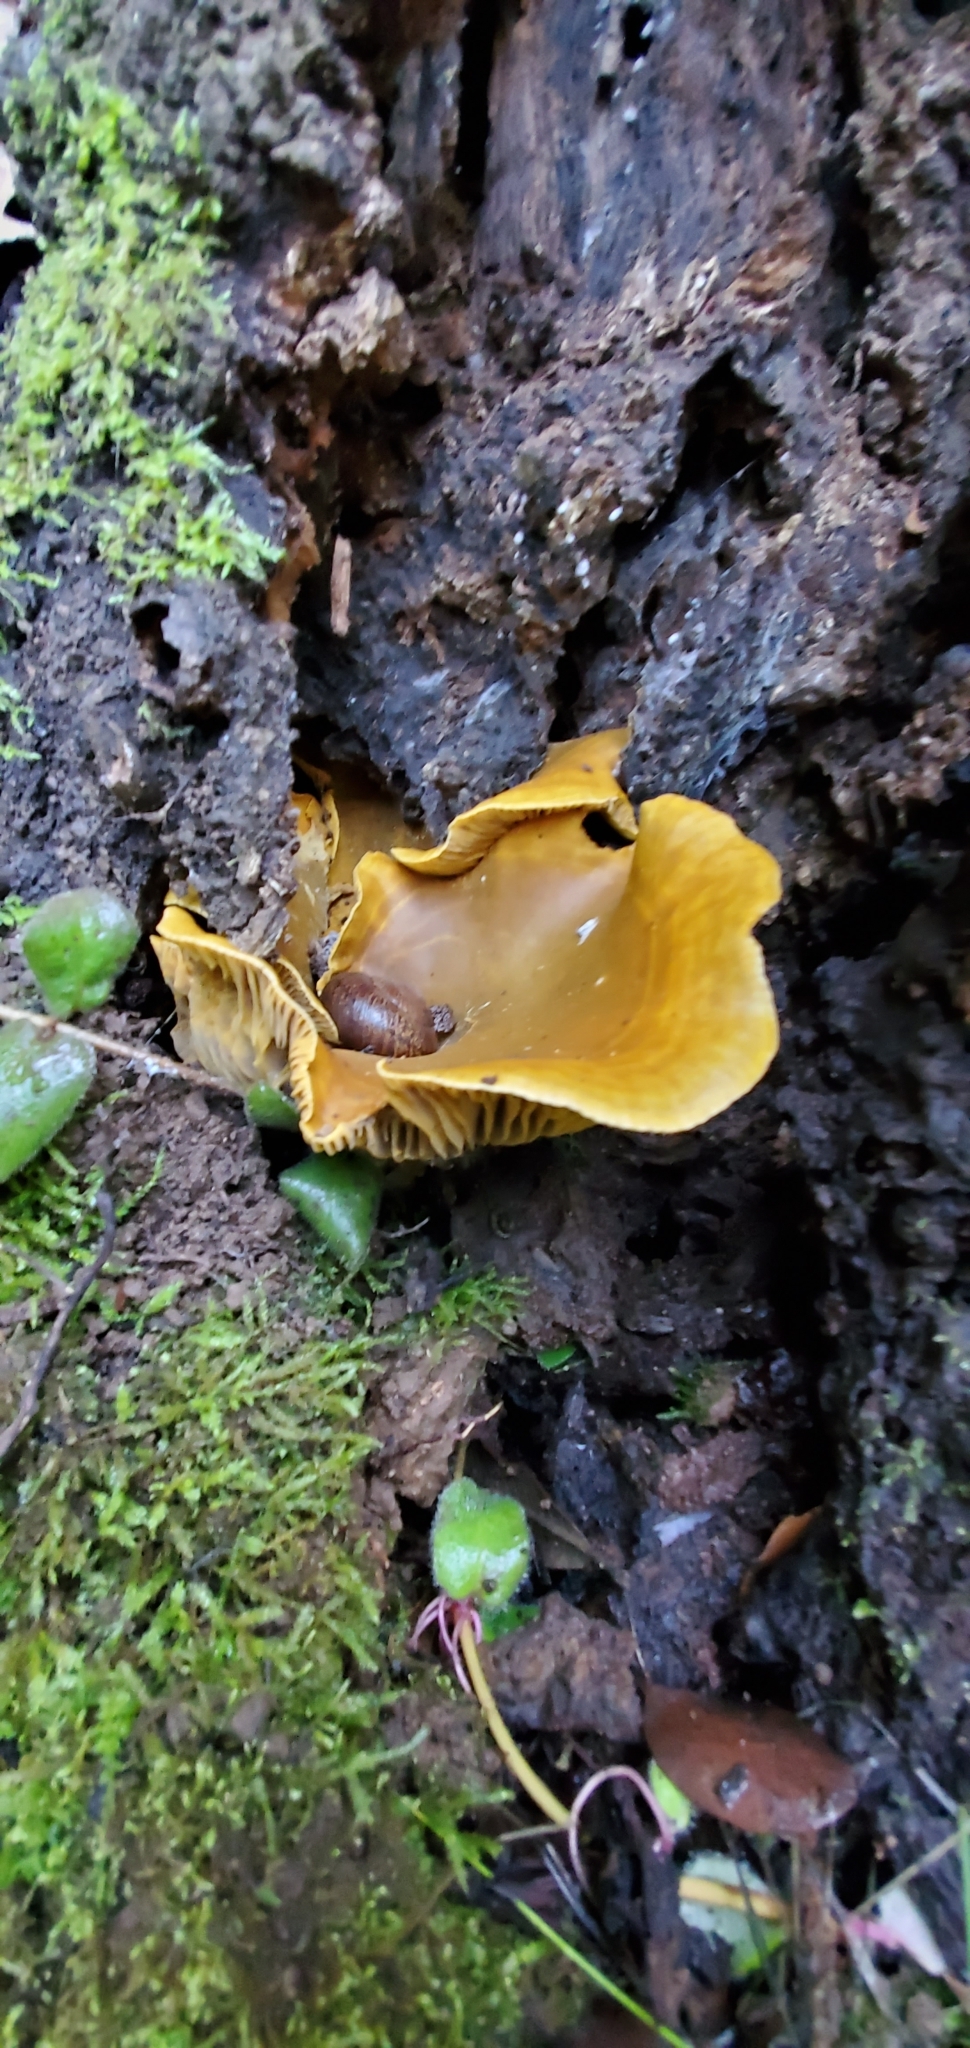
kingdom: Fungi
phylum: Basidiomycota
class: Agaricomycetes
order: Agaricales
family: Omphalotaceae
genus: Omphalotus
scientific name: Omphalotus olivascens
